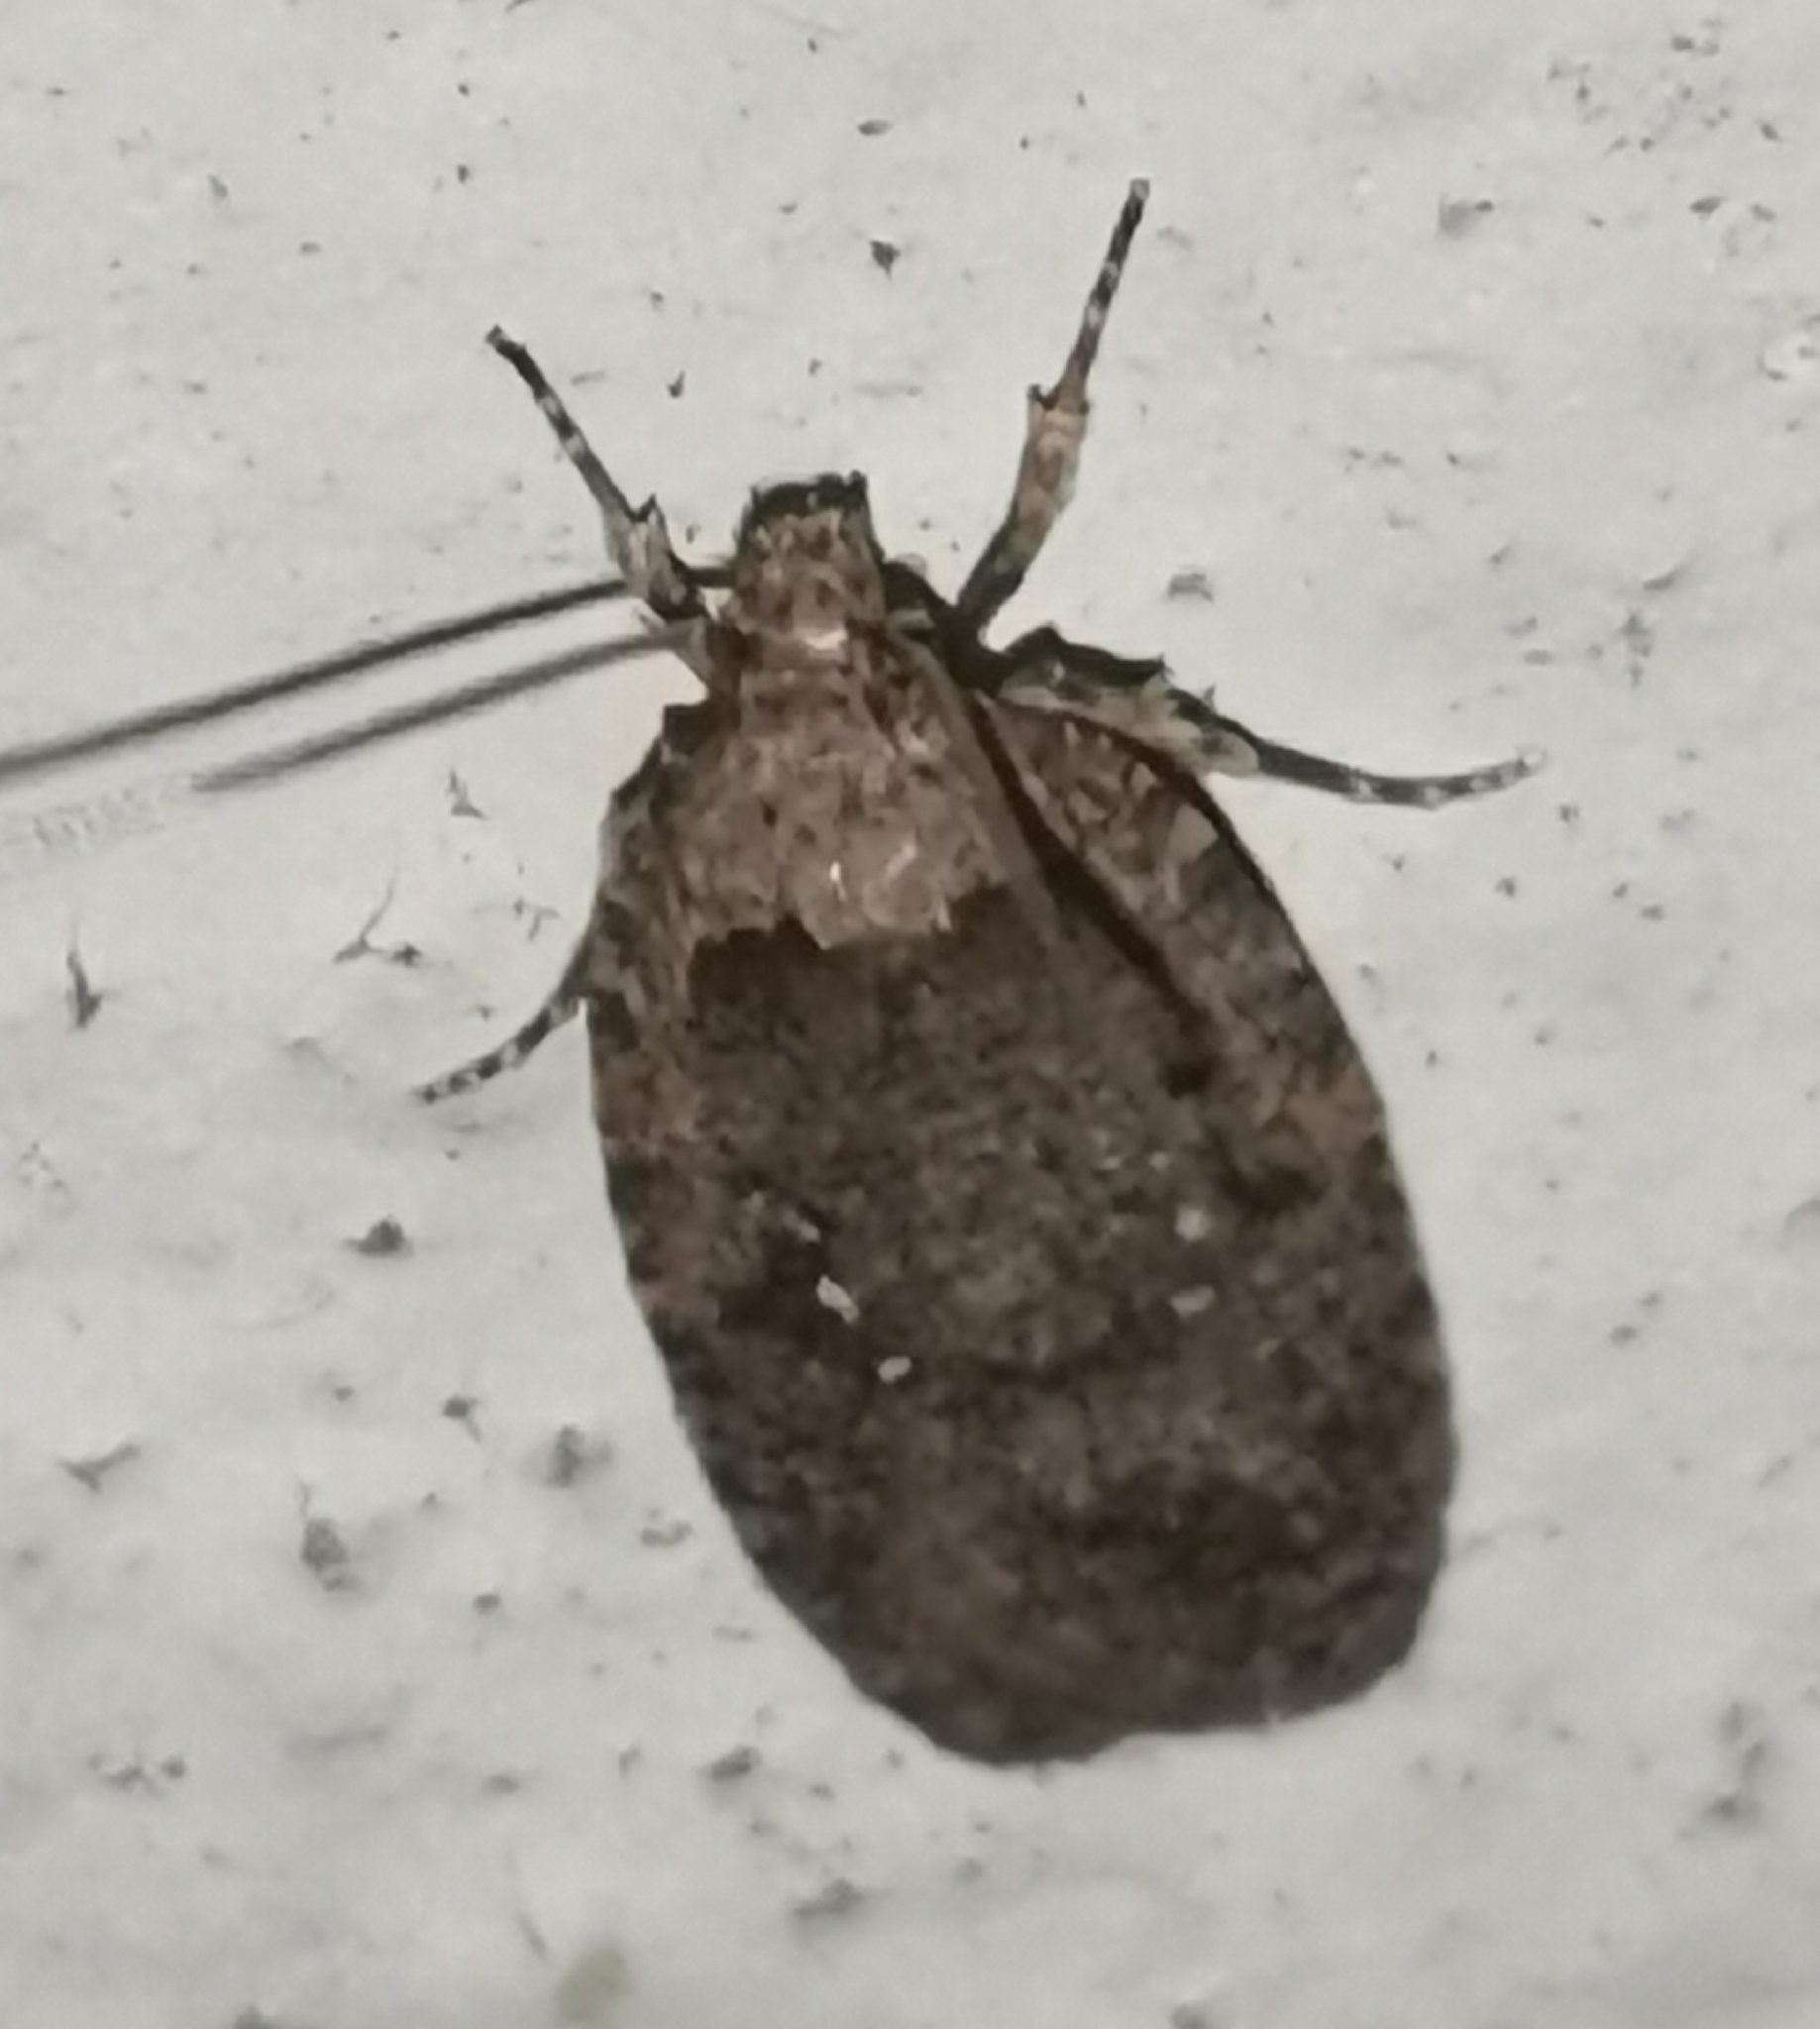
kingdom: Animalia
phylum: Arthropoda
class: Insecta
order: Lepidoptera
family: Depressariidae
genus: Agonopterix
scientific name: Agonopterix heracliana
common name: Common flat-body
